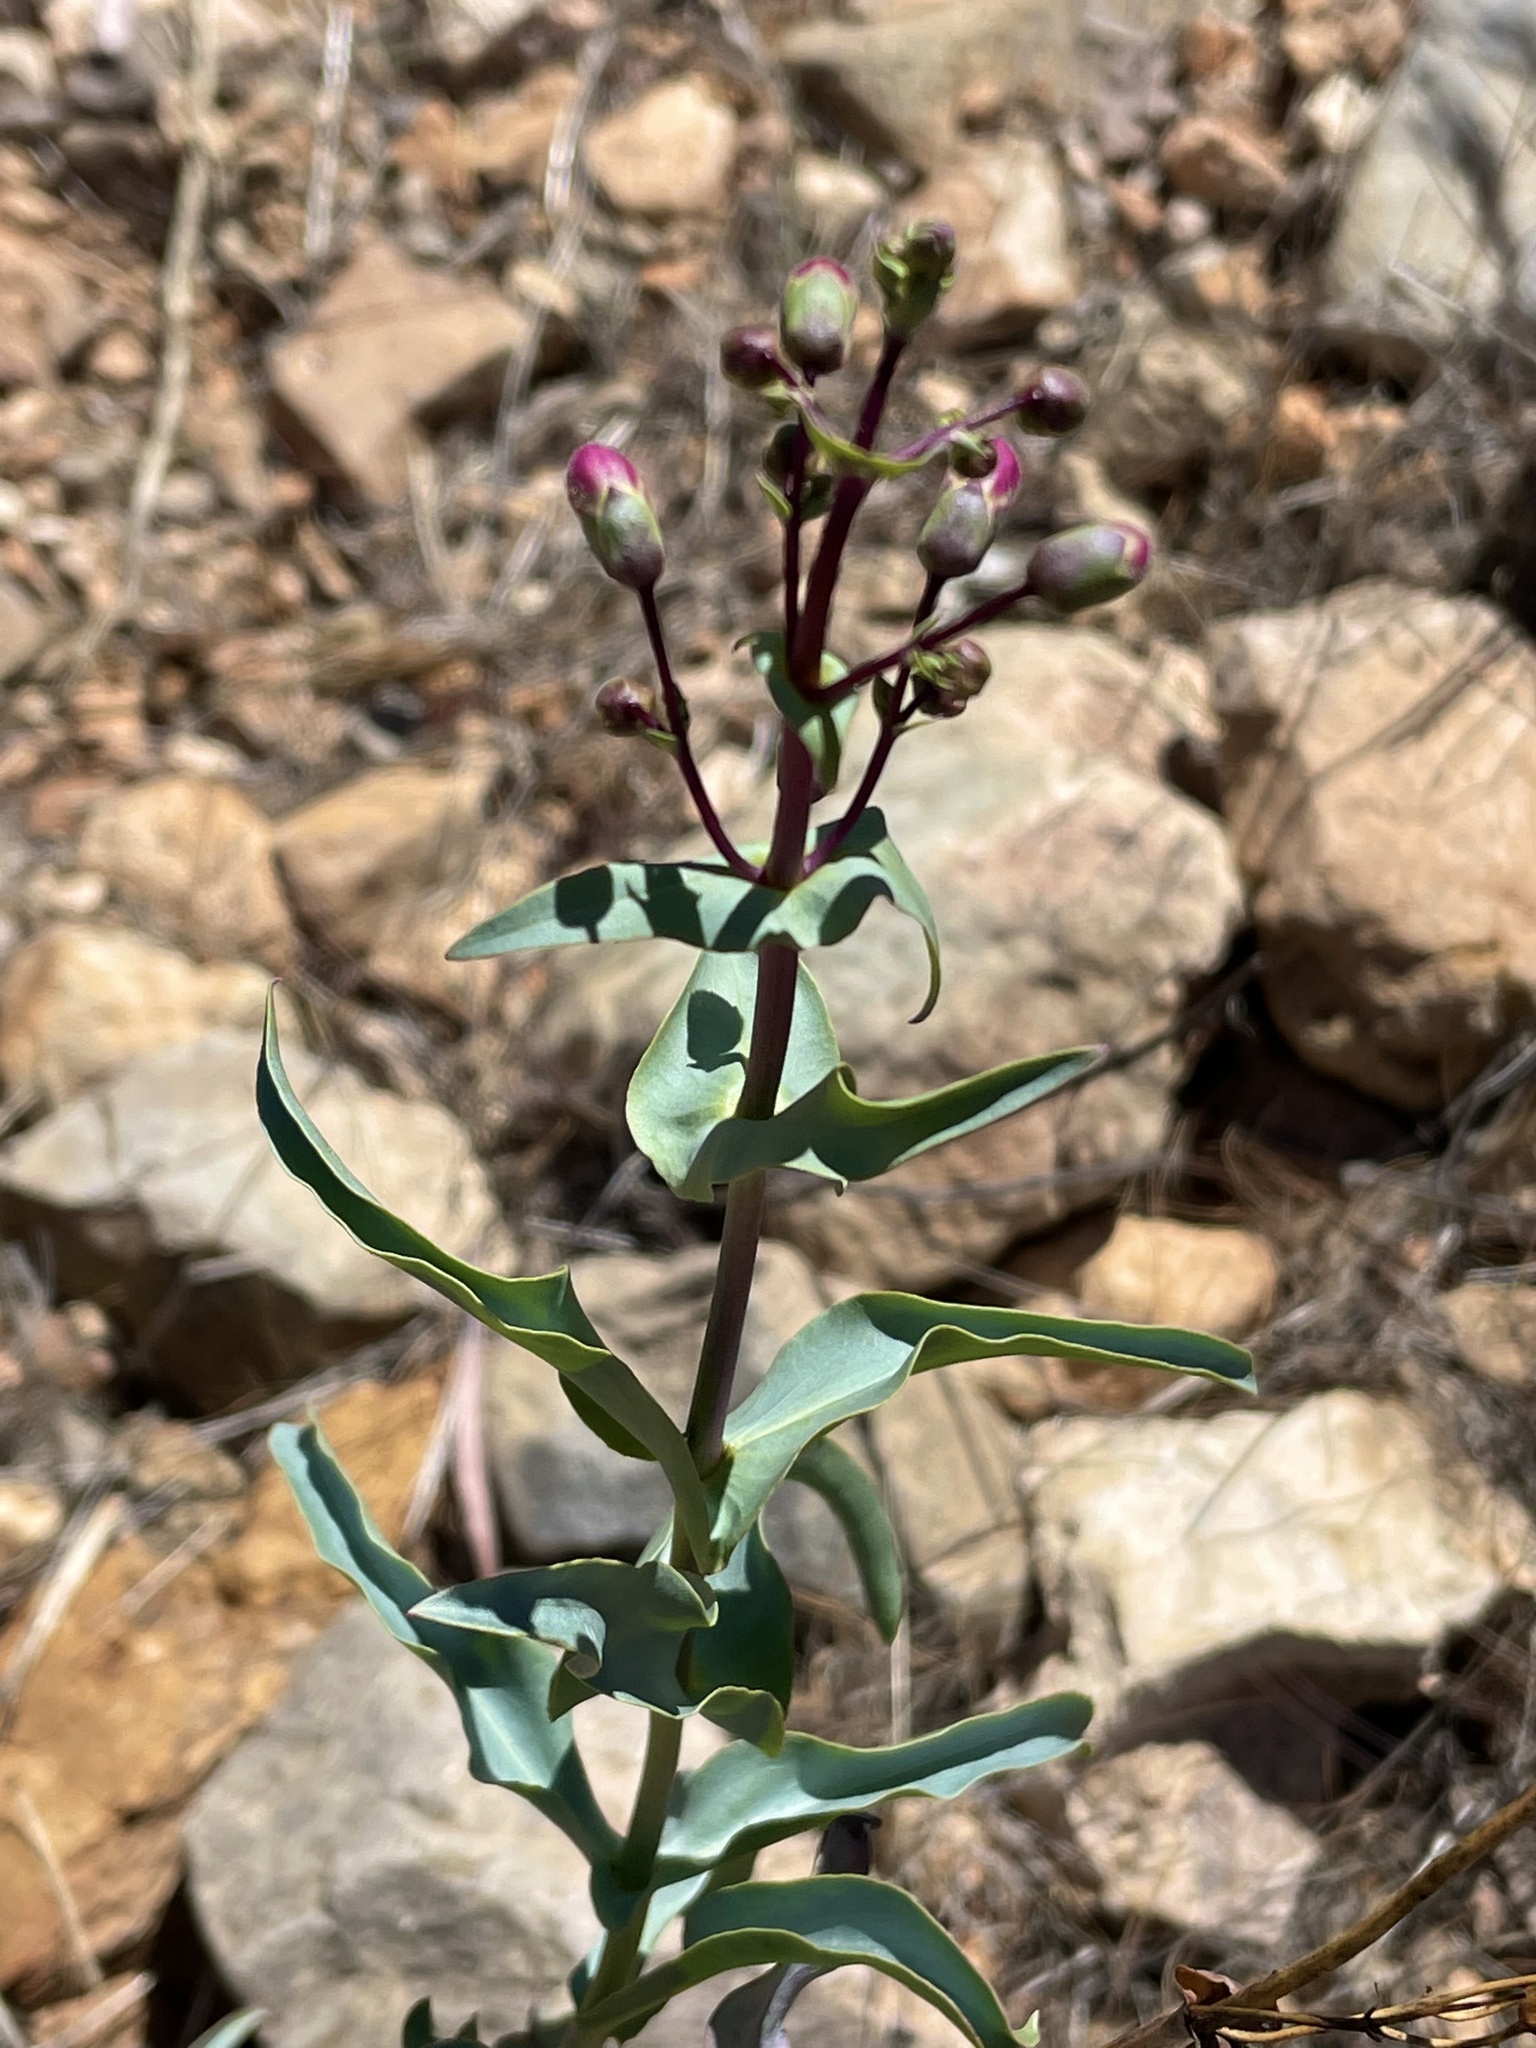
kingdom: Plantae
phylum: Tracheophyta
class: Magnoliopsida
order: Lamiales
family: Plantaginaceae
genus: Penstemon
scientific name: Penstemon spectabilis
